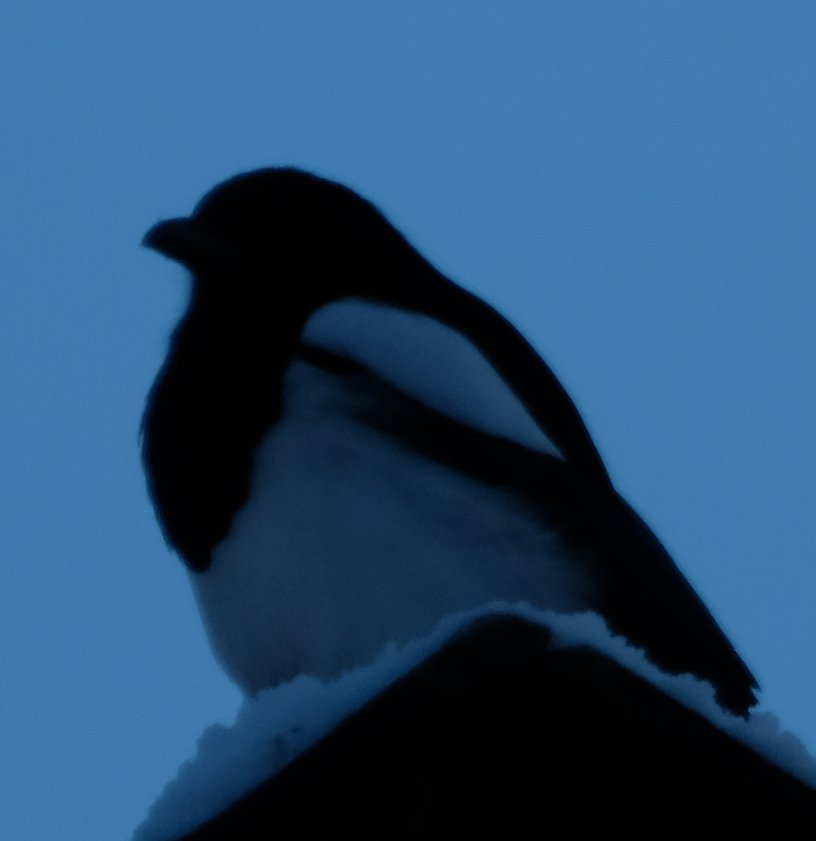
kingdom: Animalia
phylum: Chordata
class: Aves
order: Passeriformes
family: Corvidae
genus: Pica
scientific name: Pica hudsonia
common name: Black-billed magpie
